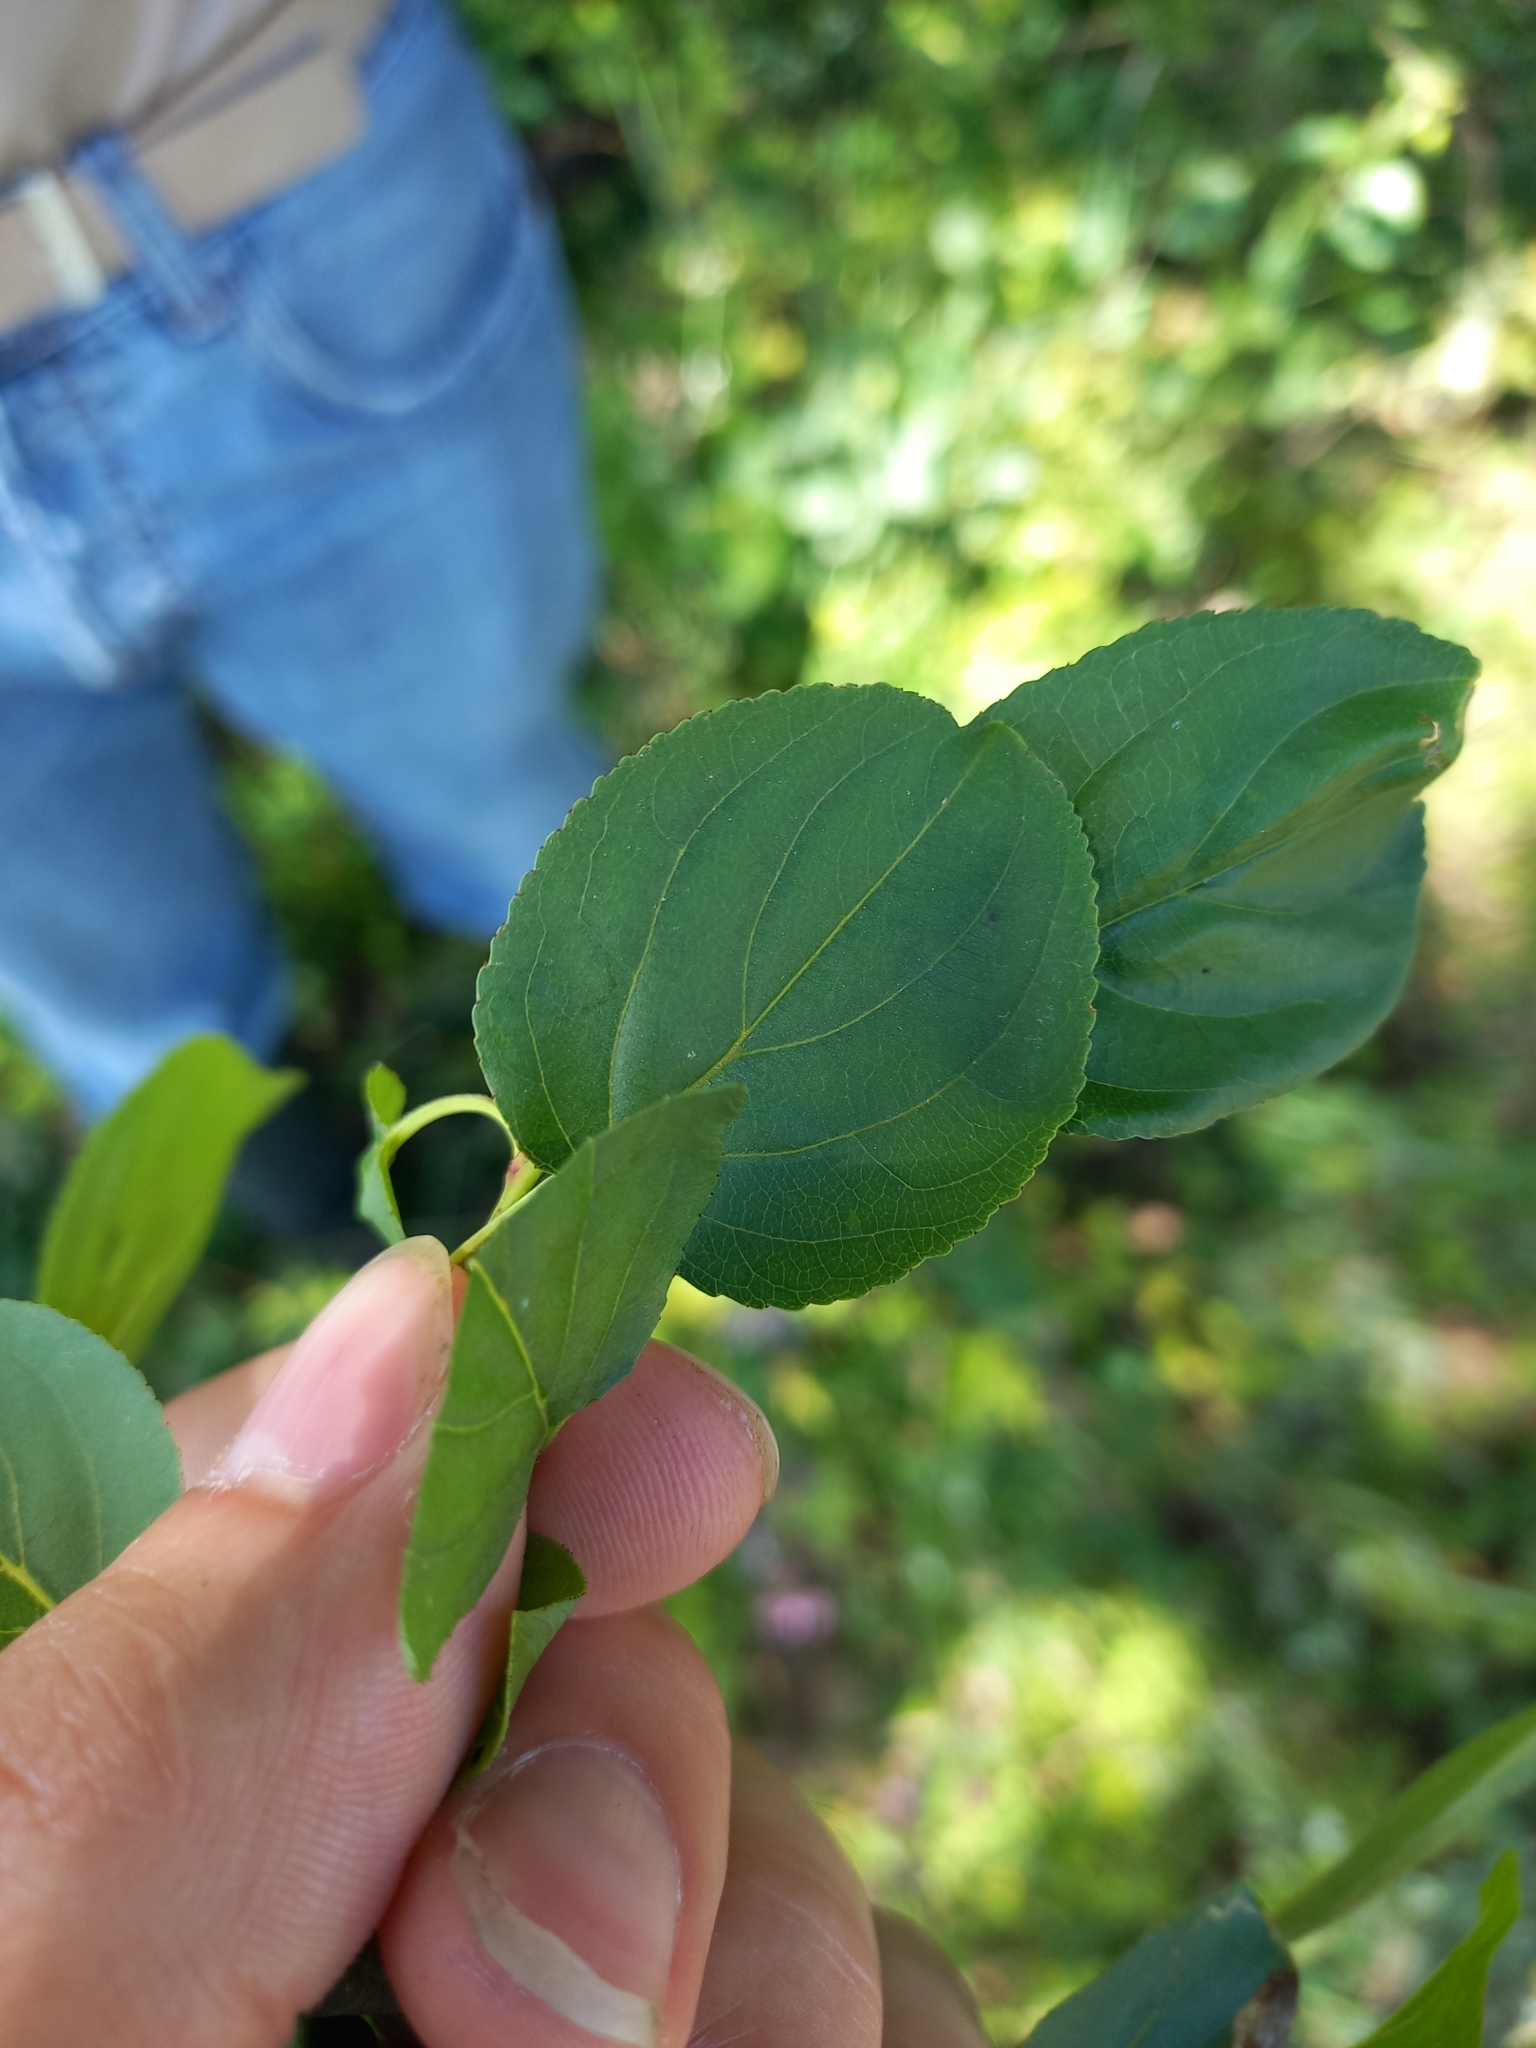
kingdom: Plantae
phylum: Tracheophyta
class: Magnoliopsida
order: Rosales
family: Rhamnaceae
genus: Rhamnus
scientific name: Rhamnus cathartica
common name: Common buckthorn
